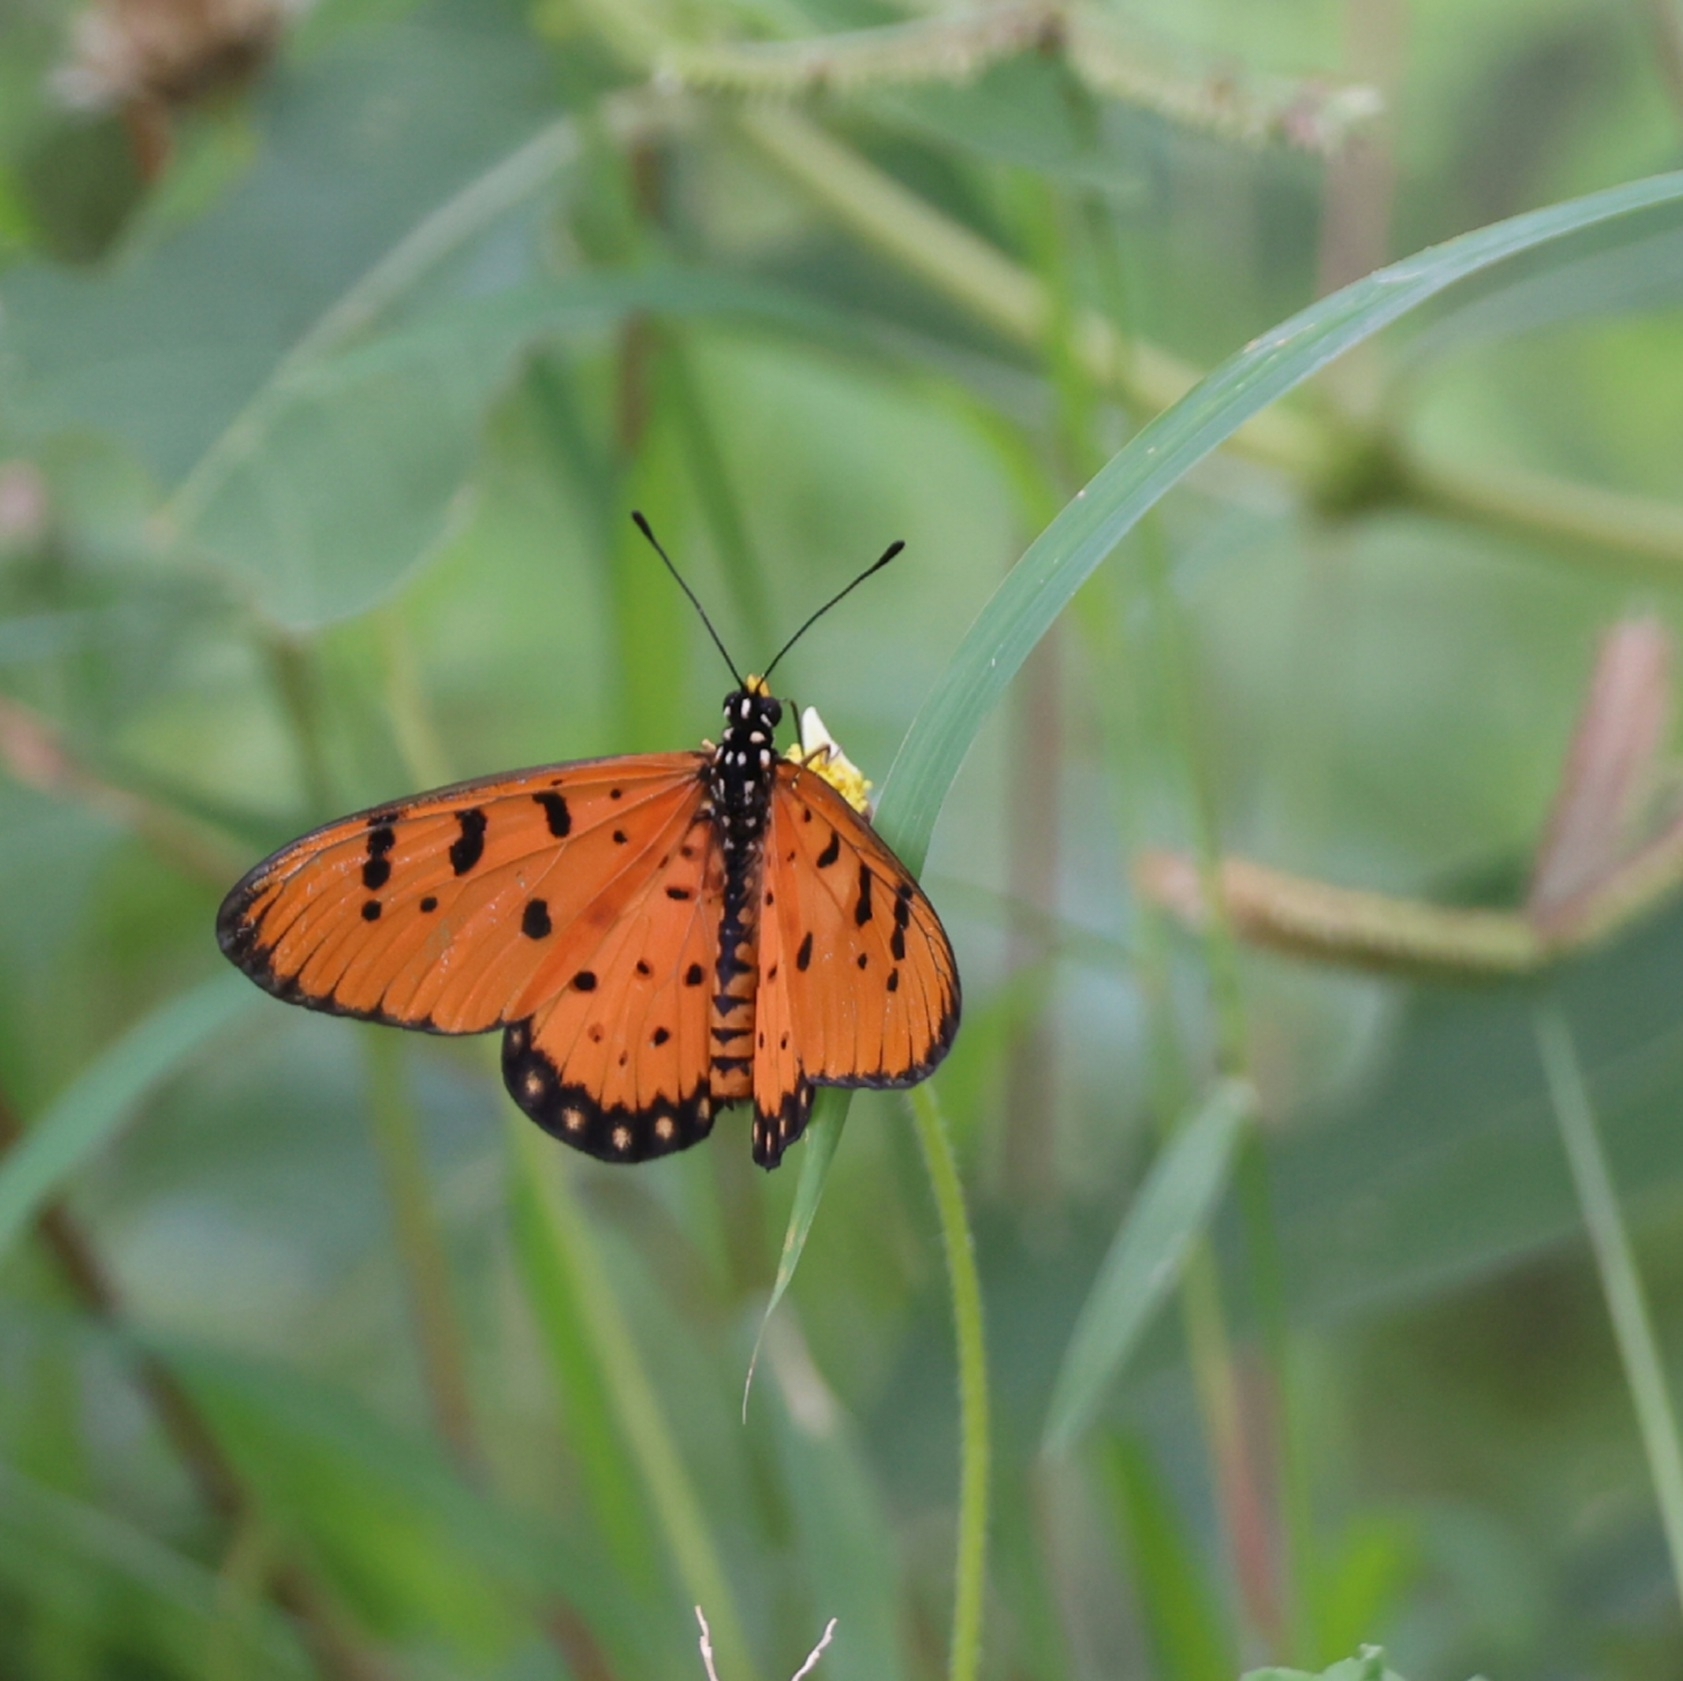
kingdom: Animalia
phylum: Arthropoda
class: Insecta
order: Lepidoptera
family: Nymphalidae
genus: Acraea
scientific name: Acraea terpsicore
